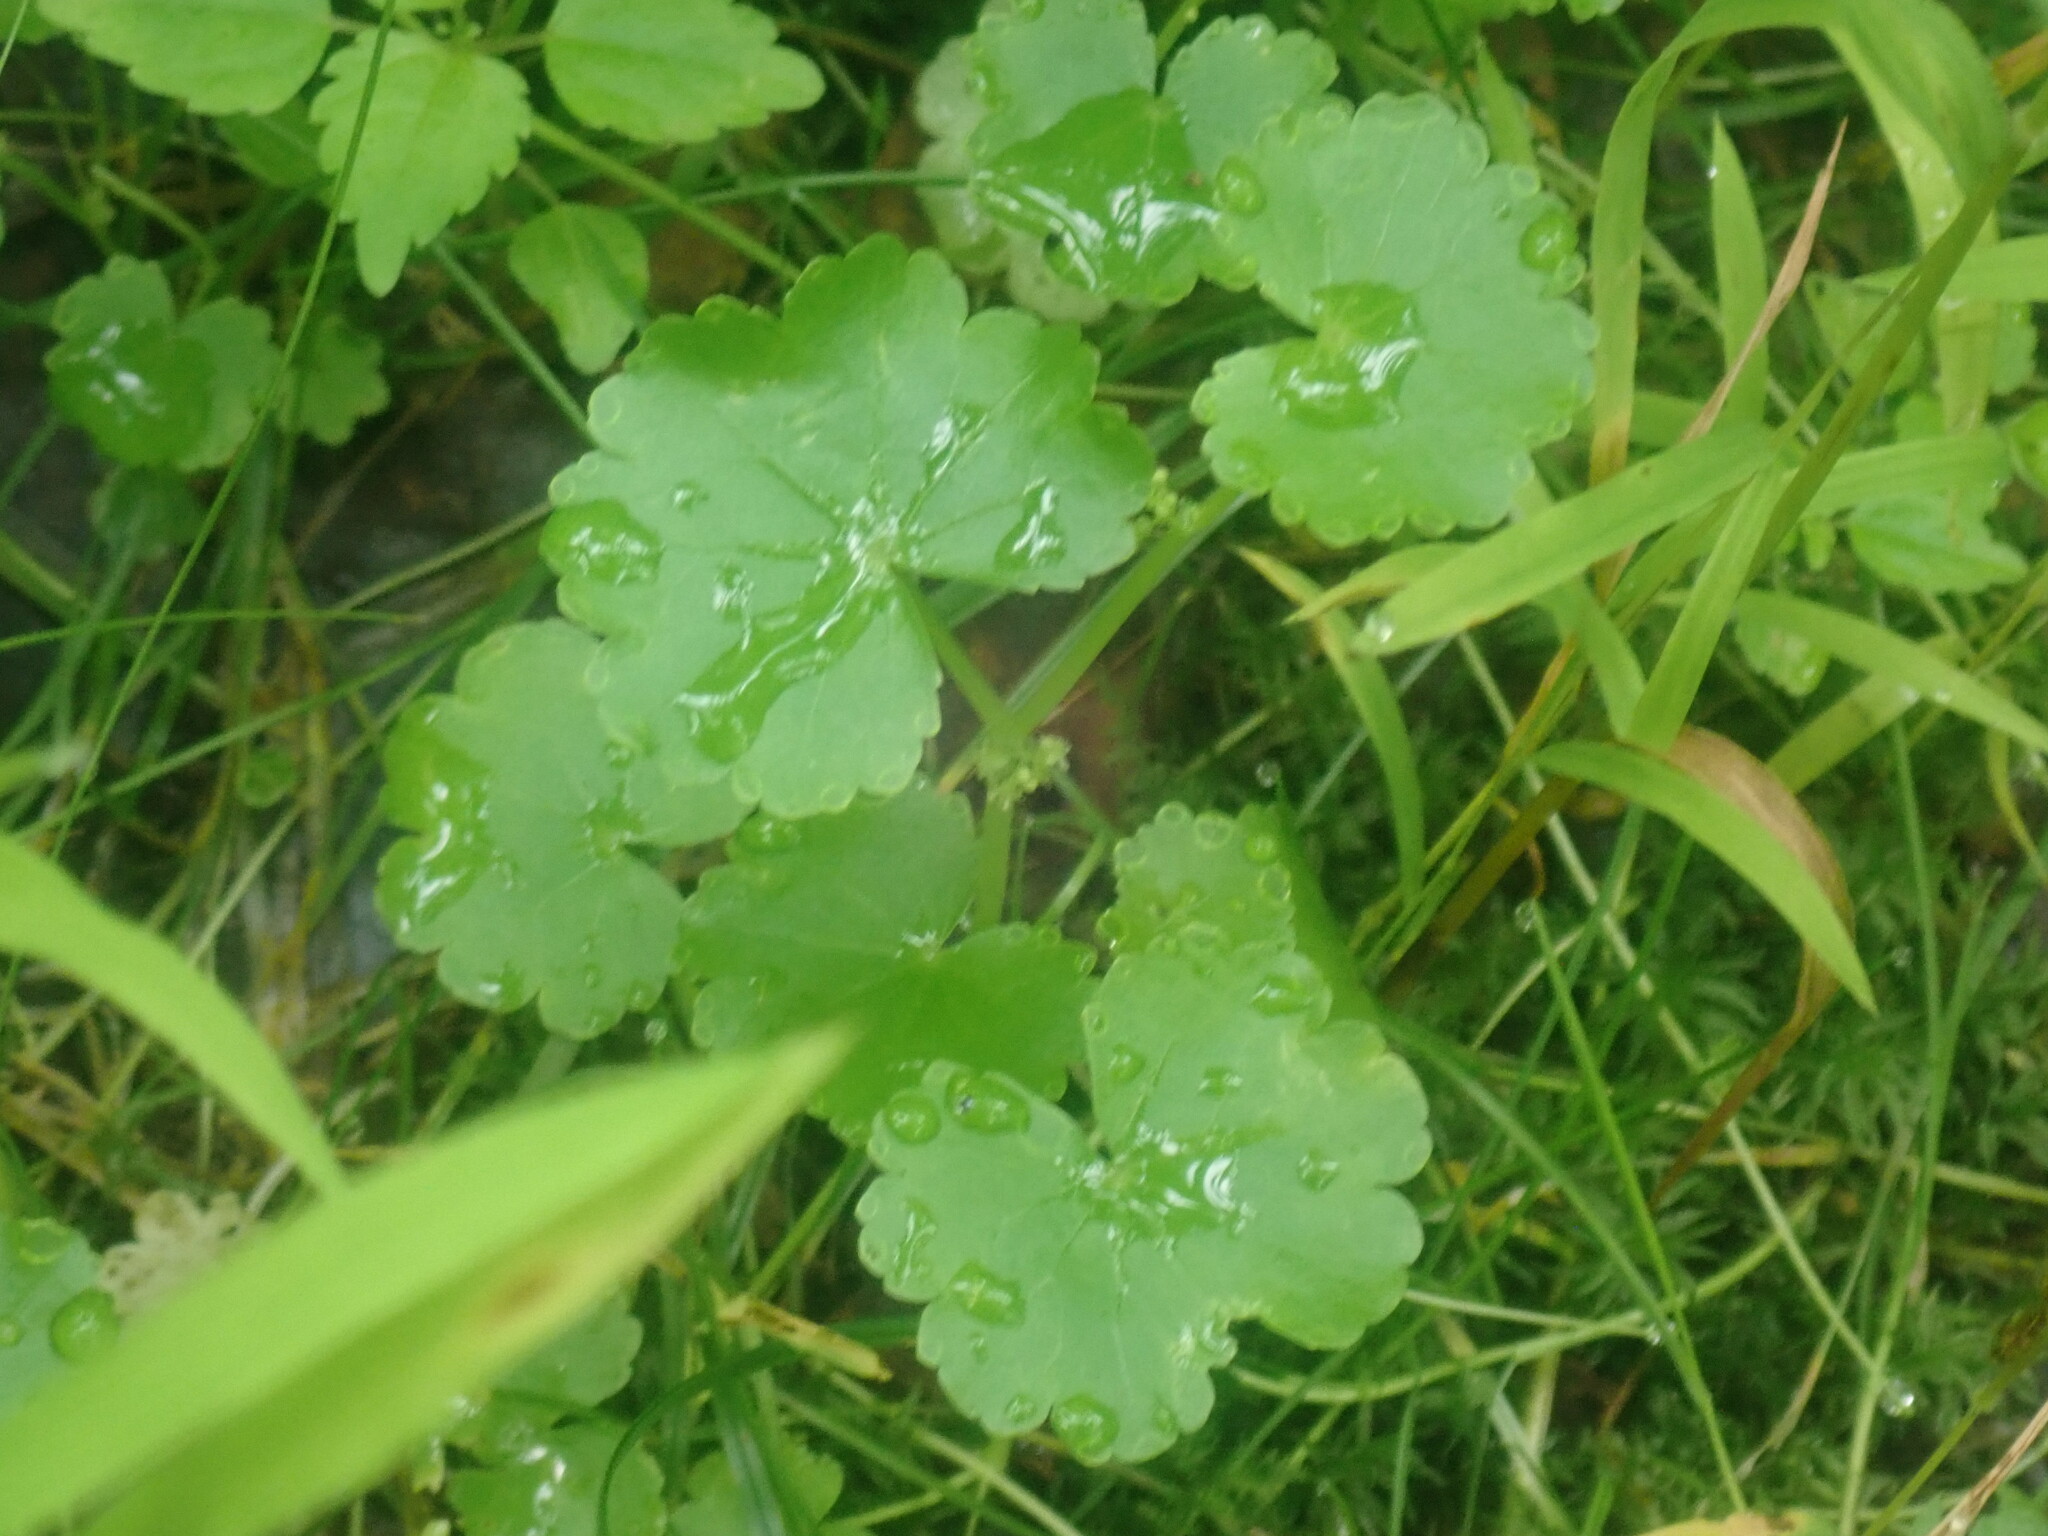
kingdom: Plantae
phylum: Tracheophyta
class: Magnoliopsida
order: Apiales
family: Araliaceae
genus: Hydrocotyle
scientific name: Hydrocotyle americana
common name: American water-pennywort
